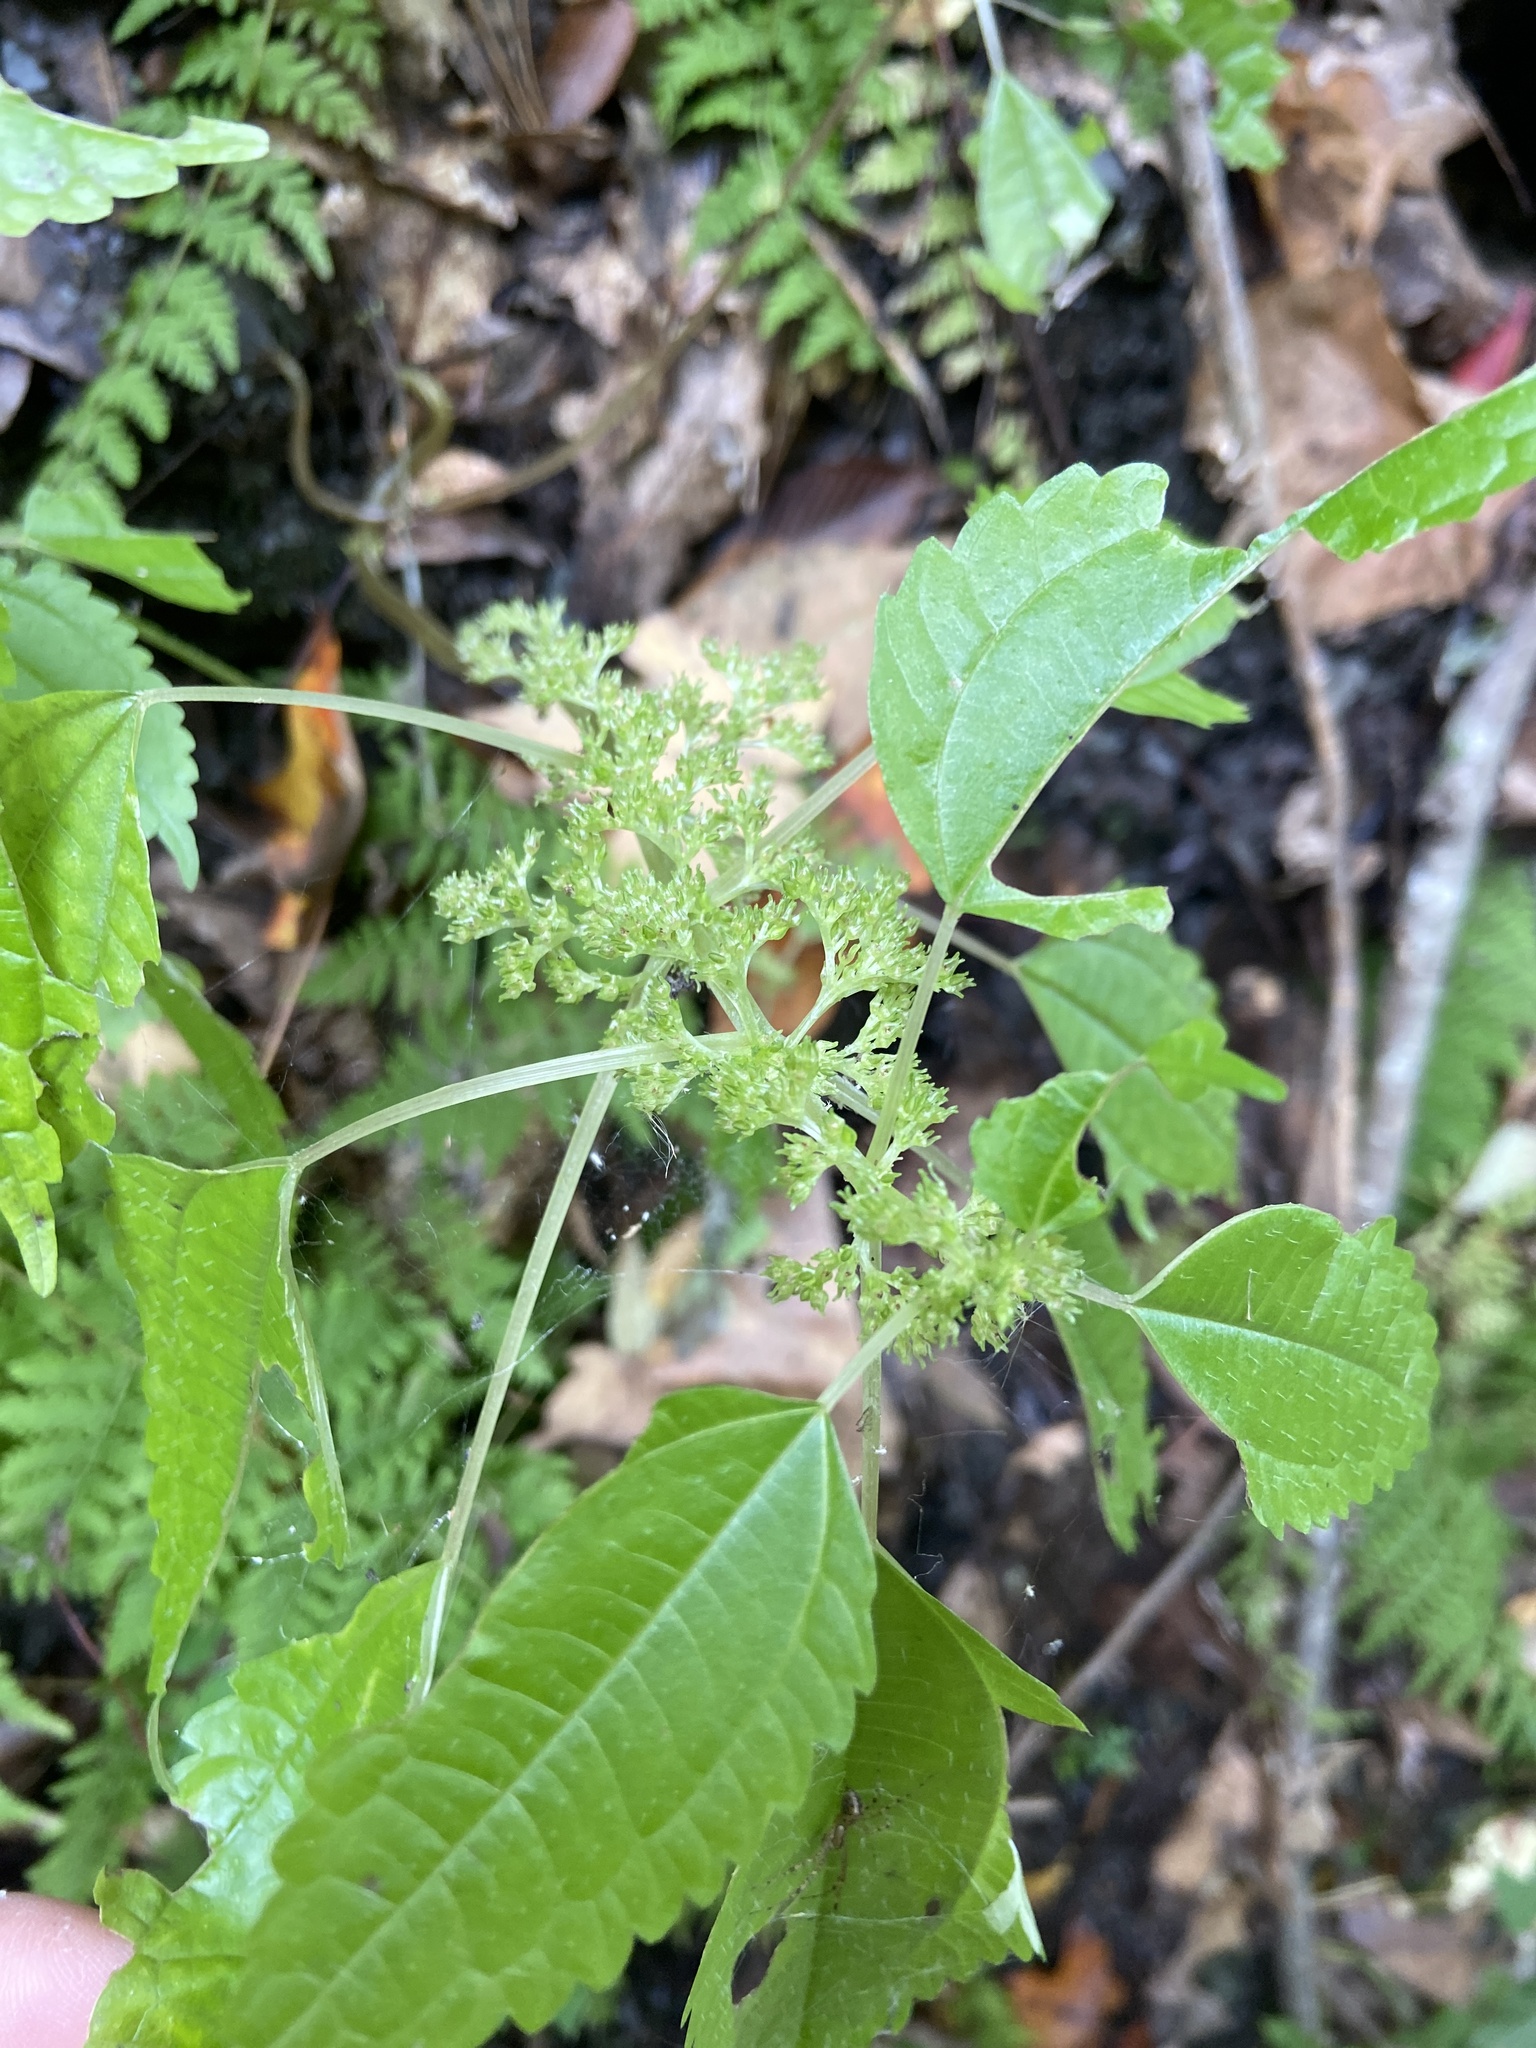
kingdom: Plantae
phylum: Tracheophyta
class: Magnoliopsida
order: Rosales
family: Urticaceae
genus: Pilea
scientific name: Pilea pumila
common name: Clearweed
